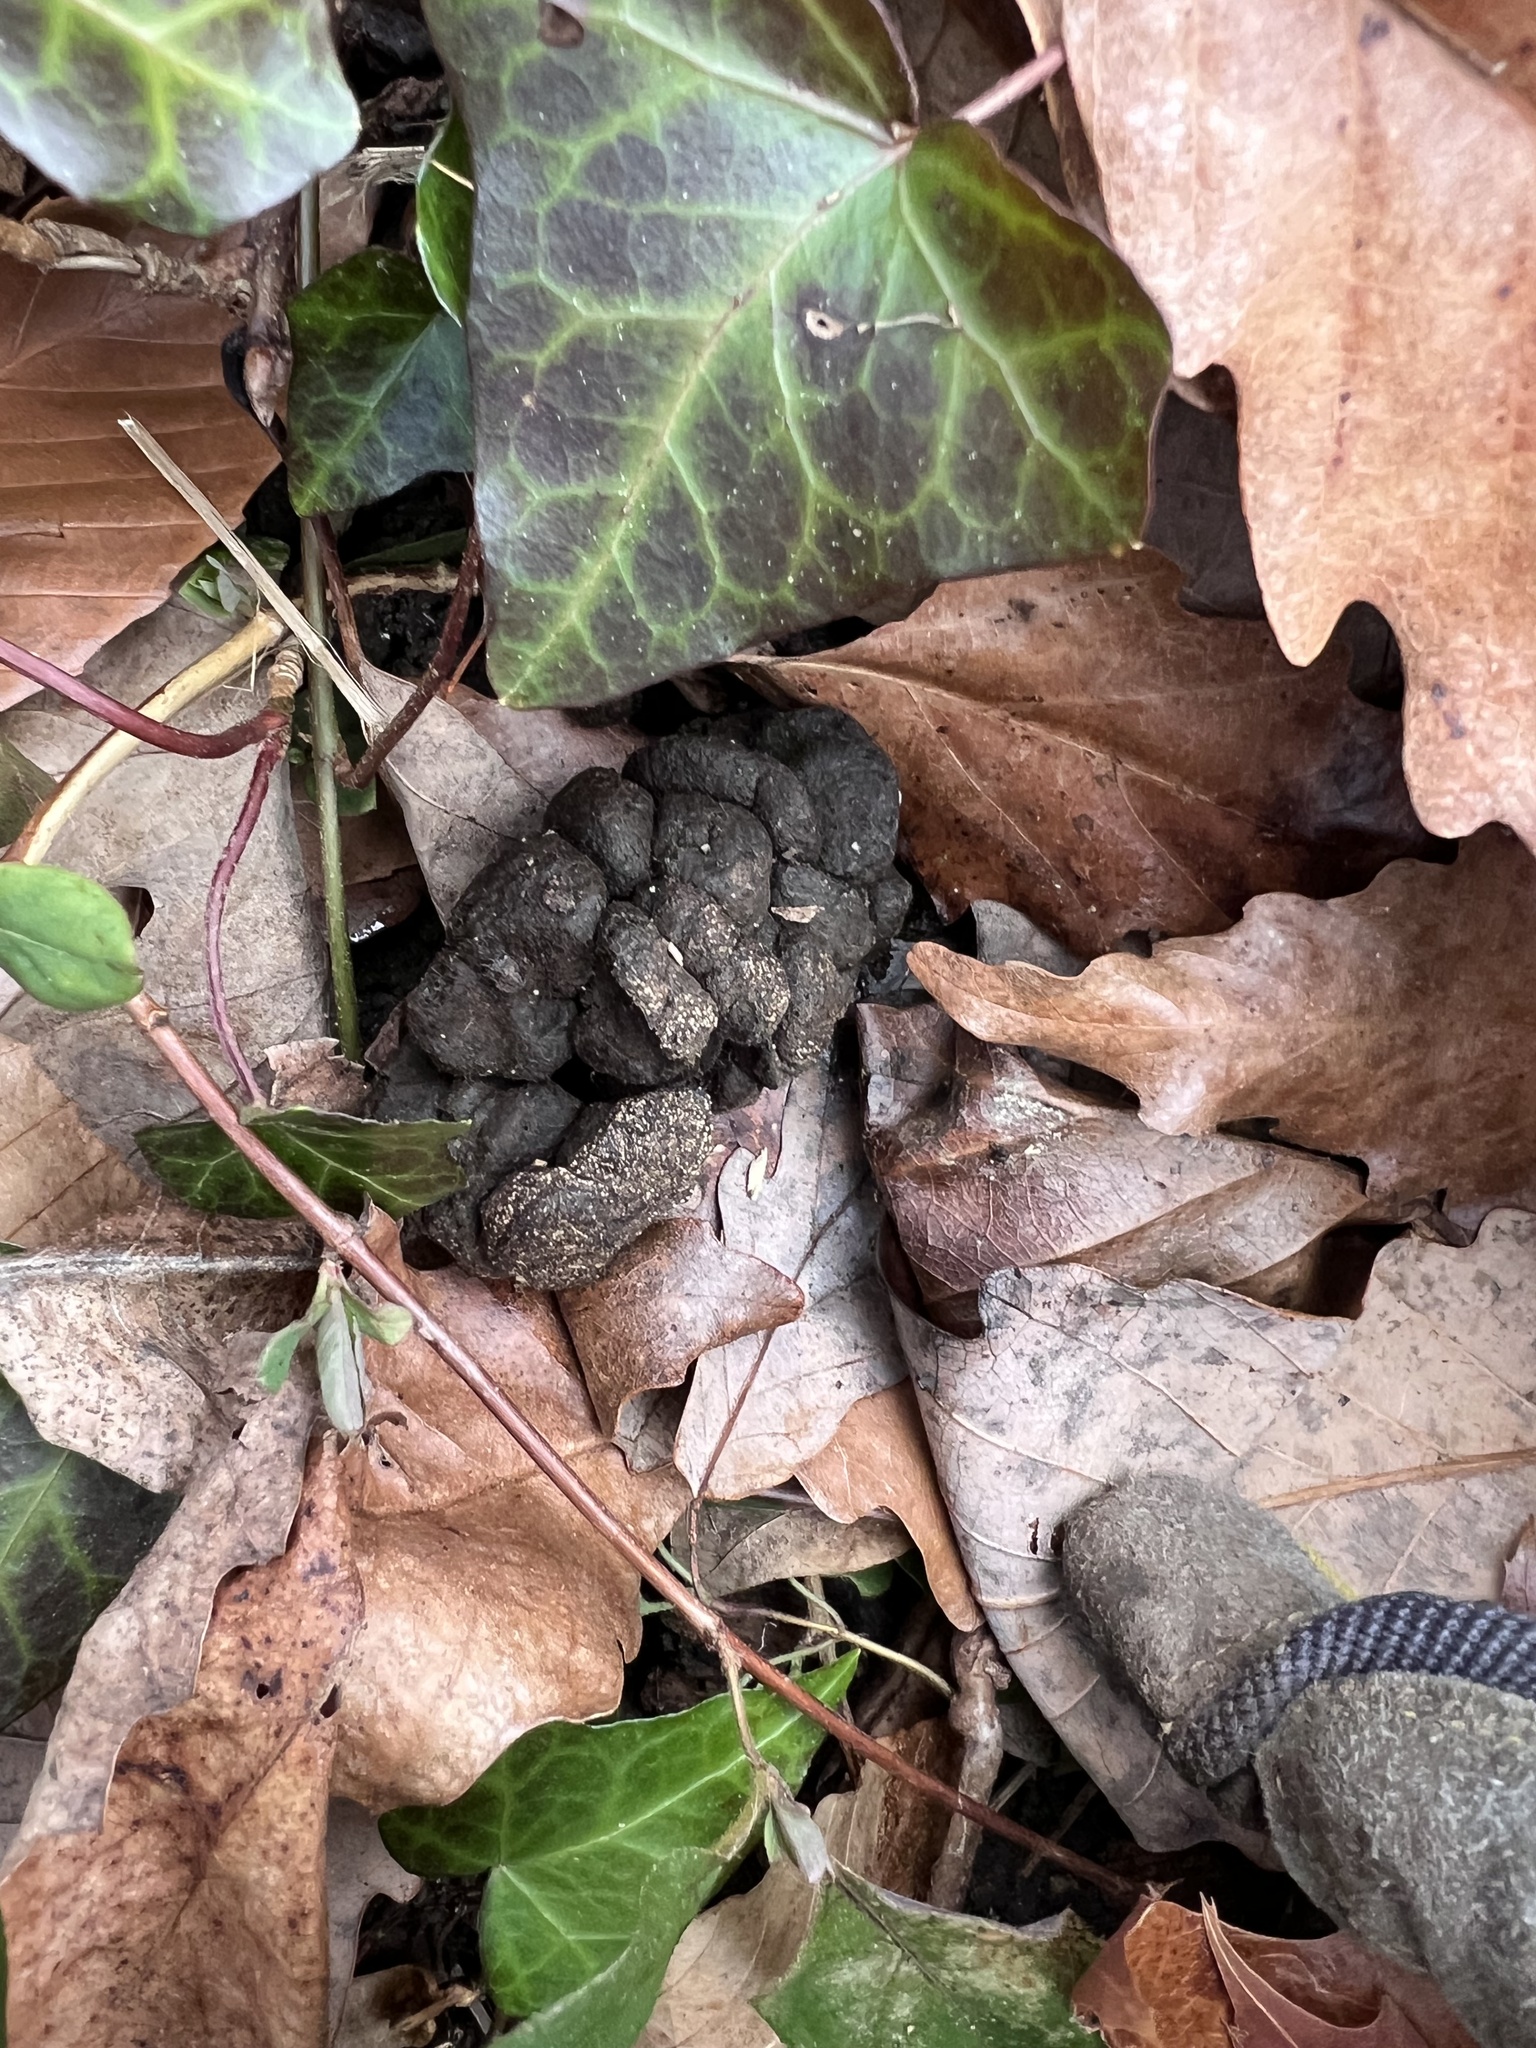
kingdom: Animalia
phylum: Chordata
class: Mammalia
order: Artiodactyla
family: Cervidae
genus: Odocoileus
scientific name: Odocoileus virginianus
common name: White-tailed deer
